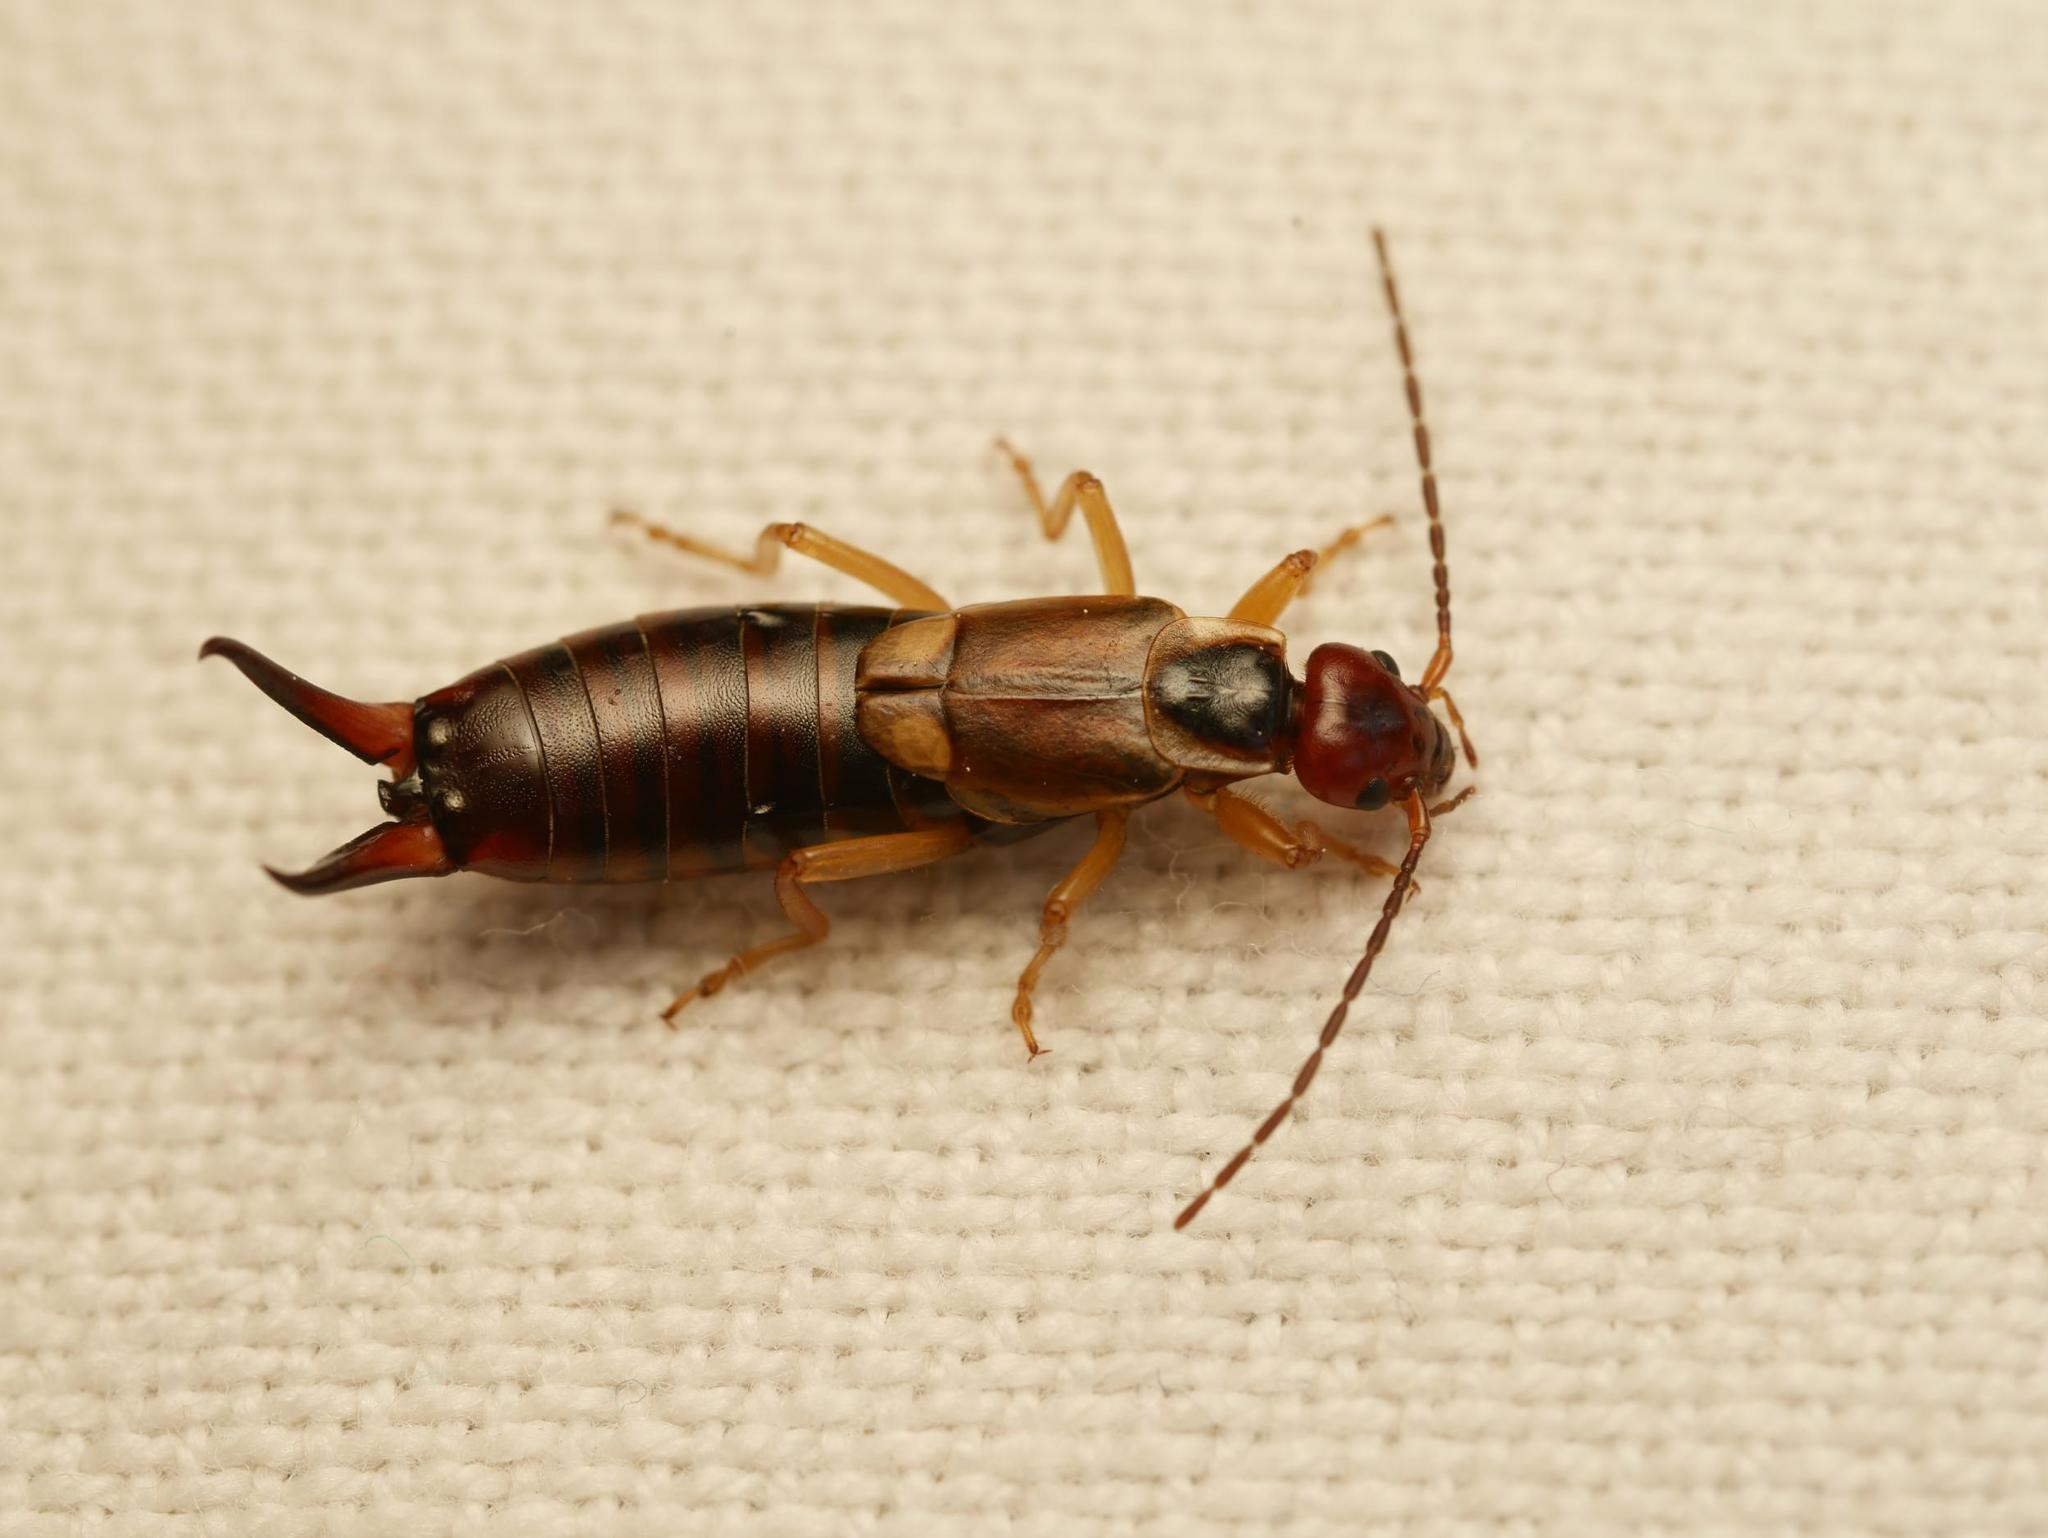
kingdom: Animalia
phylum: Arthropoda
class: Insecta
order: Dermaptera
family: Forficulidae
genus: Forficula
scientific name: Forficula
